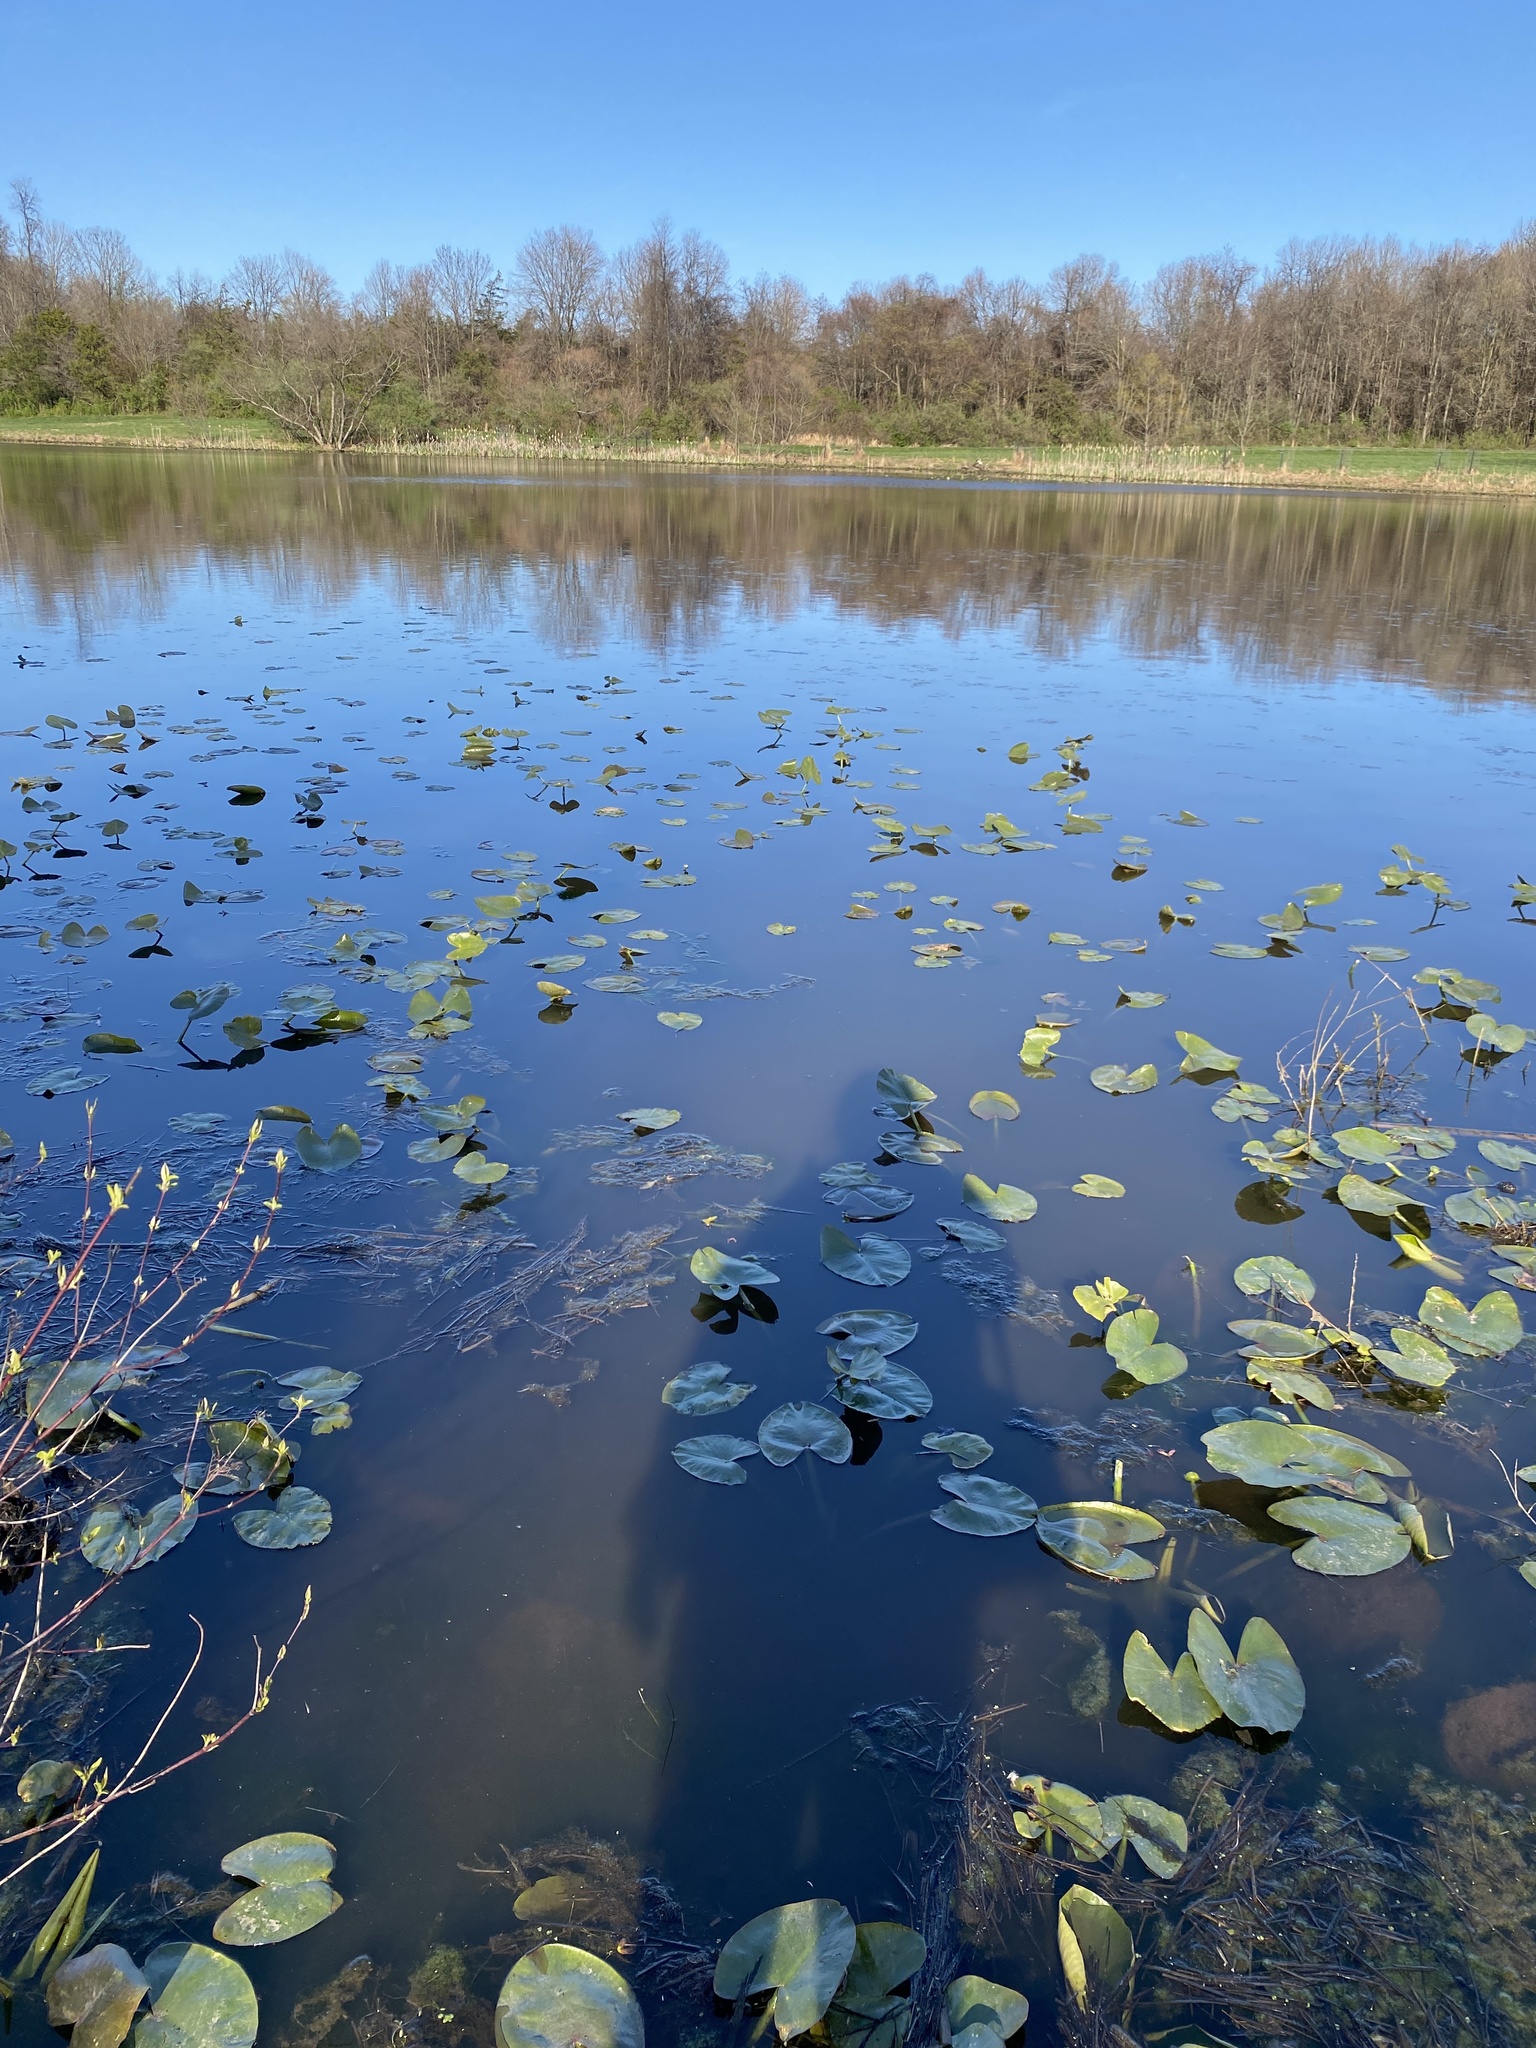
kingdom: Plantae
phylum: Tracheophyta
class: Magnoliopsida
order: Nymphaeales
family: Nymphaeaceae
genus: Nuphar
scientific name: Nuphar advena
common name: Spatter-dock
